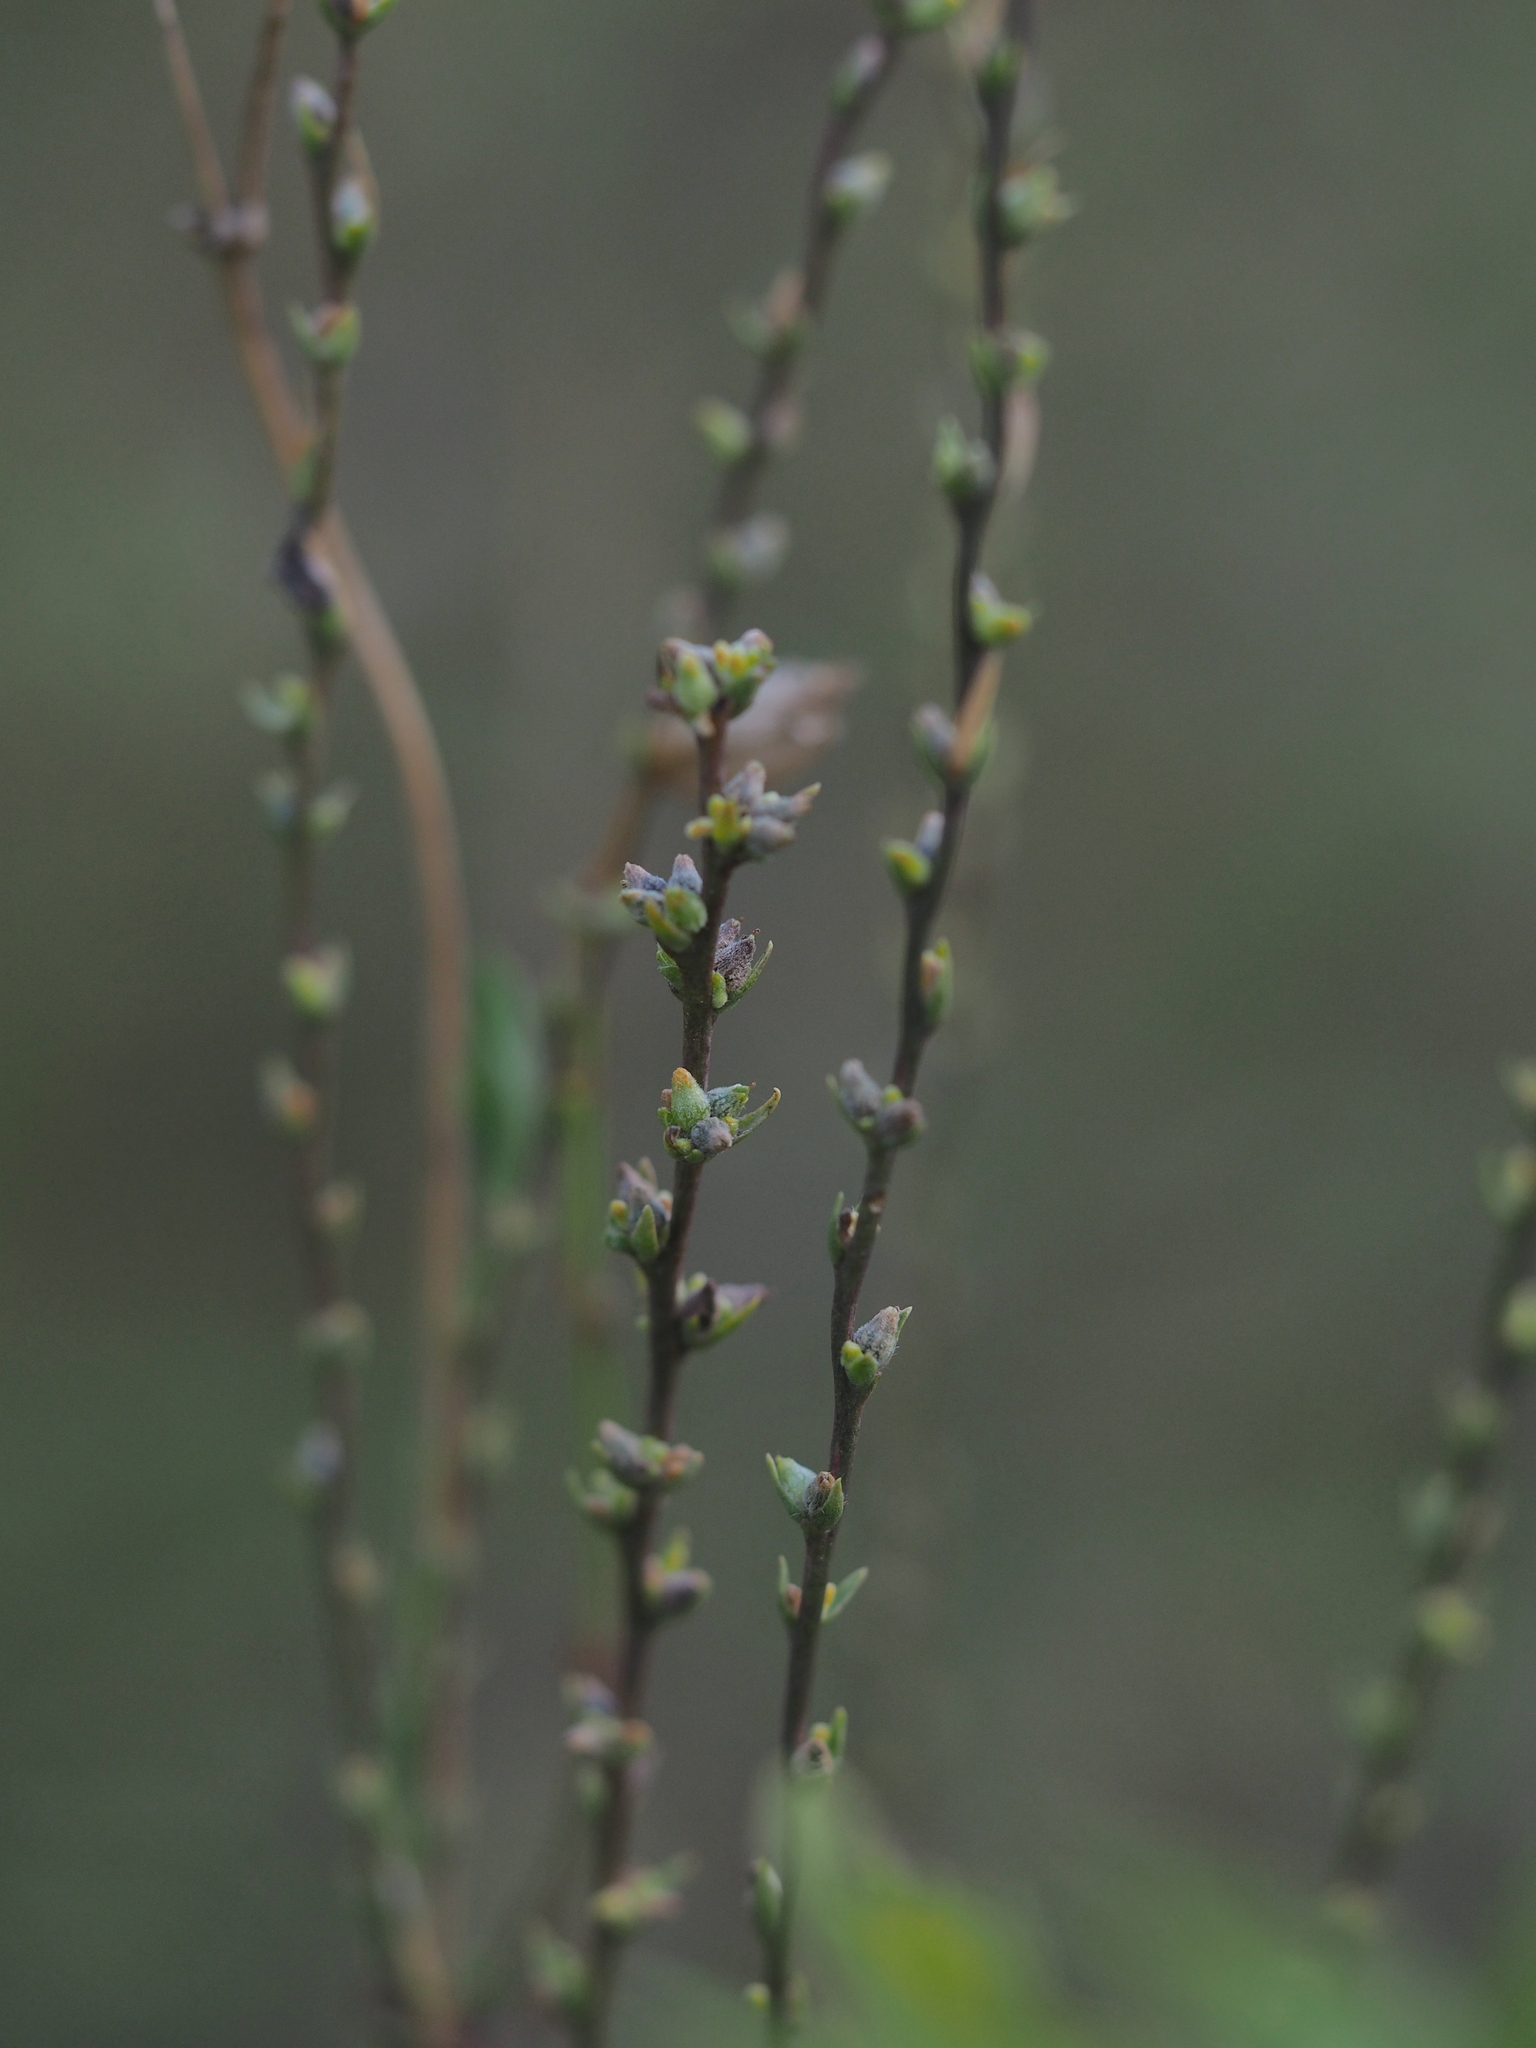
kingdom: Plantae
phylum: Tracheophyta
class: Magnoliopsida
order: Malvales
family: Thymelaeaceae
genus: Thymelaea
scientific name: Thymelaea passerina
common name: Annual thymelaea
